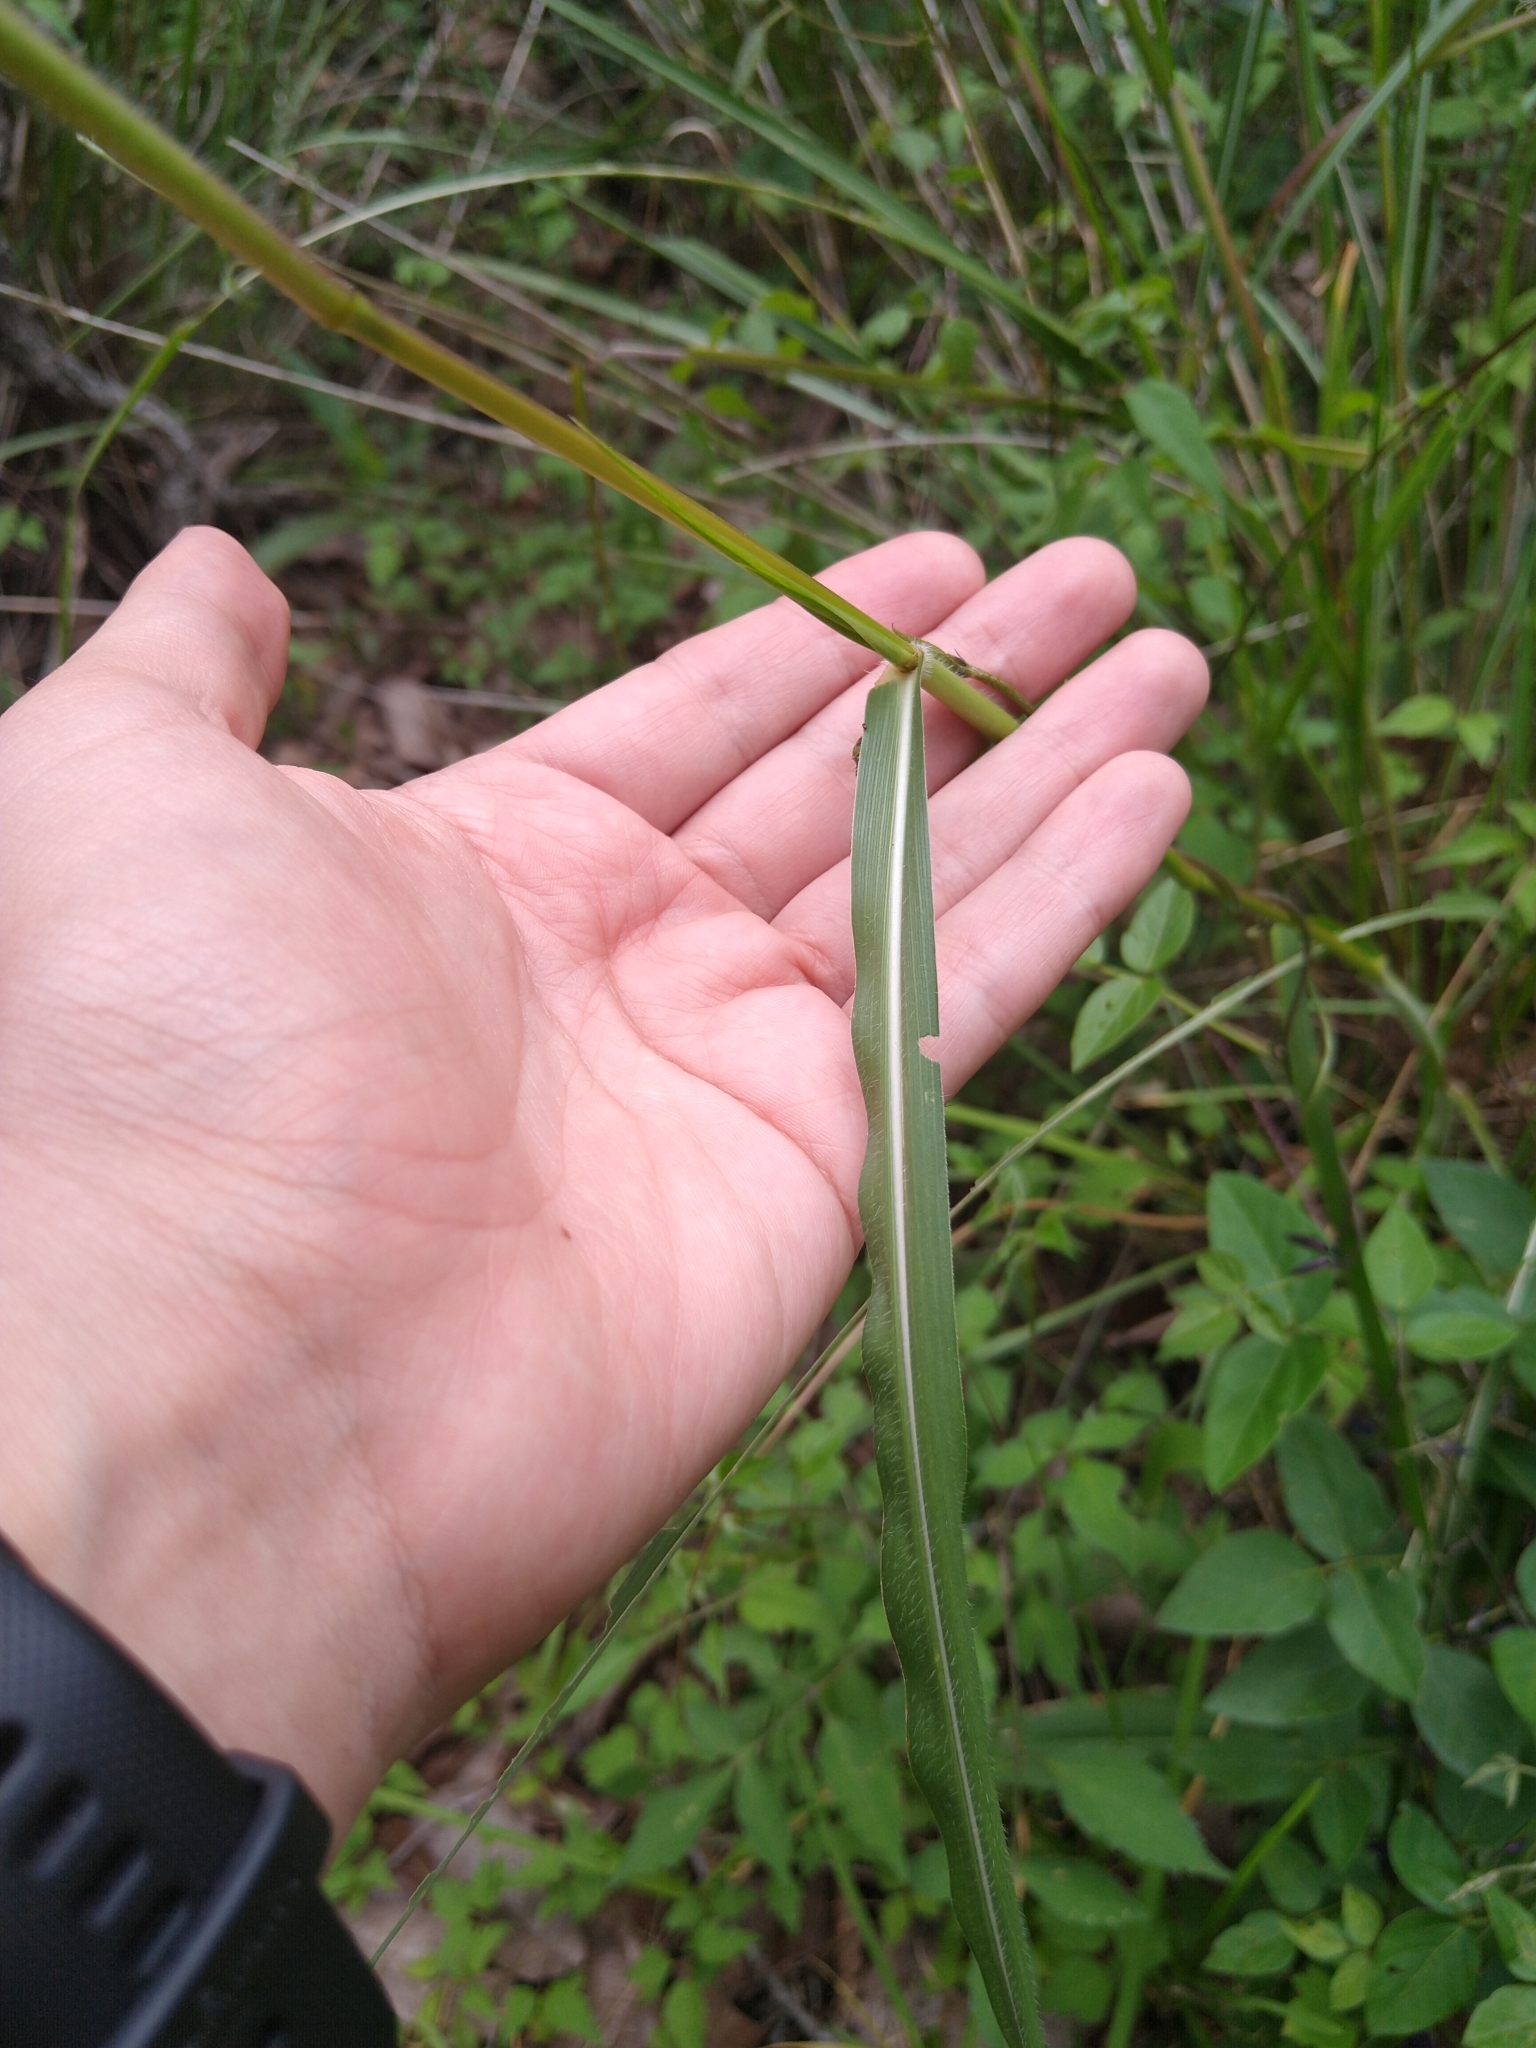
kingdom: Plantae
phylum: Tracheophyta
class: Liliopsida
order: Poales
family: Poaceae
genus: Tripsacum
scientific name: Tripsacum dactyloides
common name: Buffalo-grass
